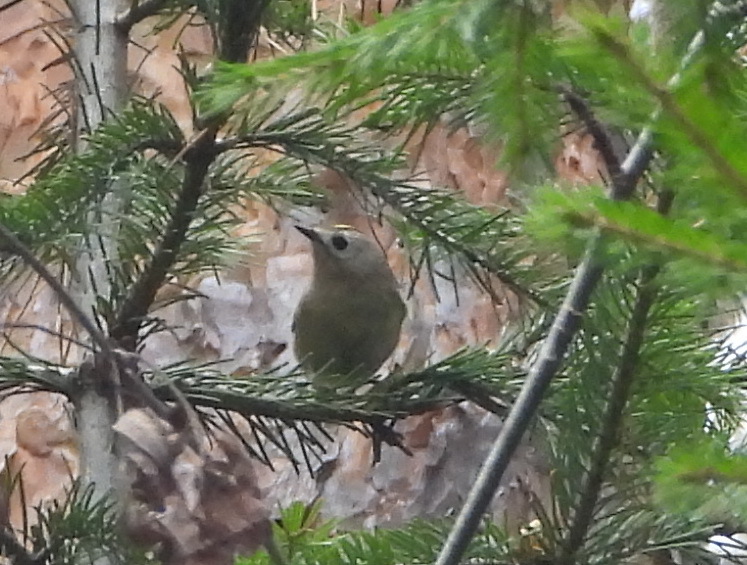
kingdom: Animalia
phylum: Chordata
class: Aves
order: Passeriformes
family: Regulidae
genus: Regulus
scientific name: Regulus regulus
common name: Goldcrest
